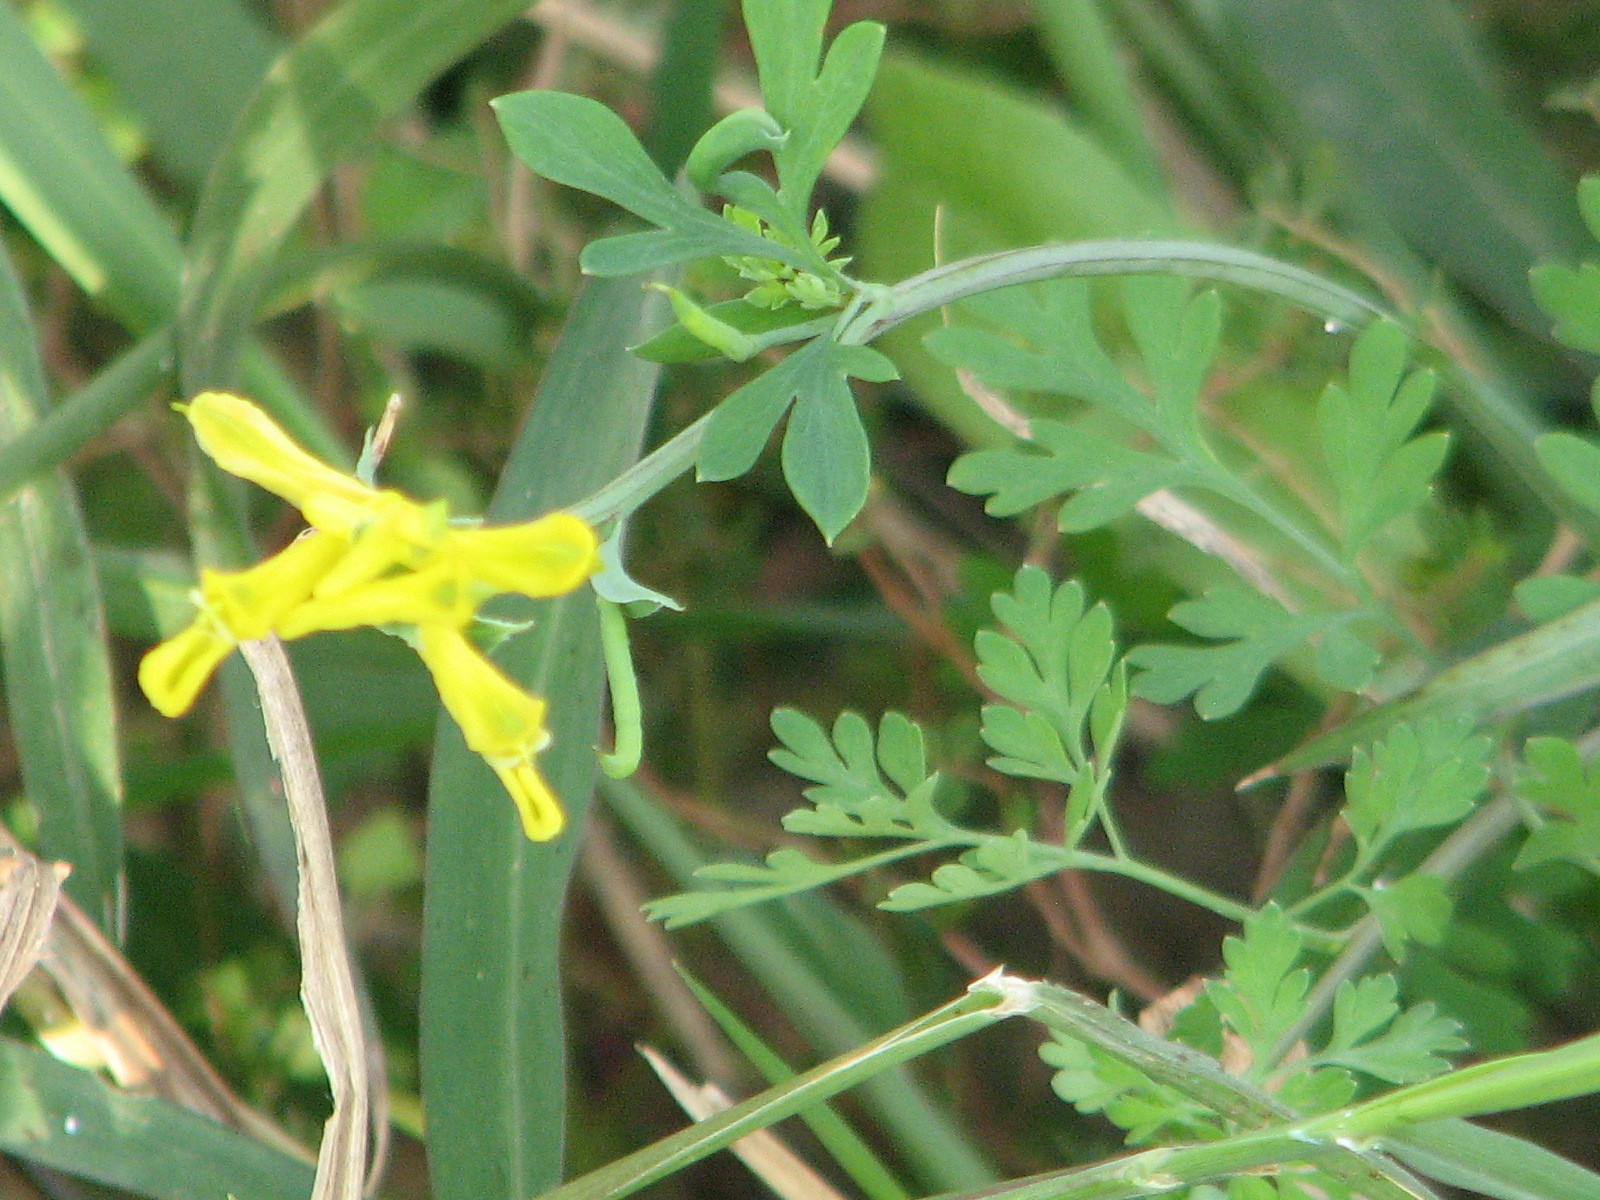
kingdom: Plantae
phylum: Tracheophyta
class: Magnoliopsida
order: Ranunculales
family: Papaveraceae
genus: Corydalis
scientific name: Corydalis micrantha
